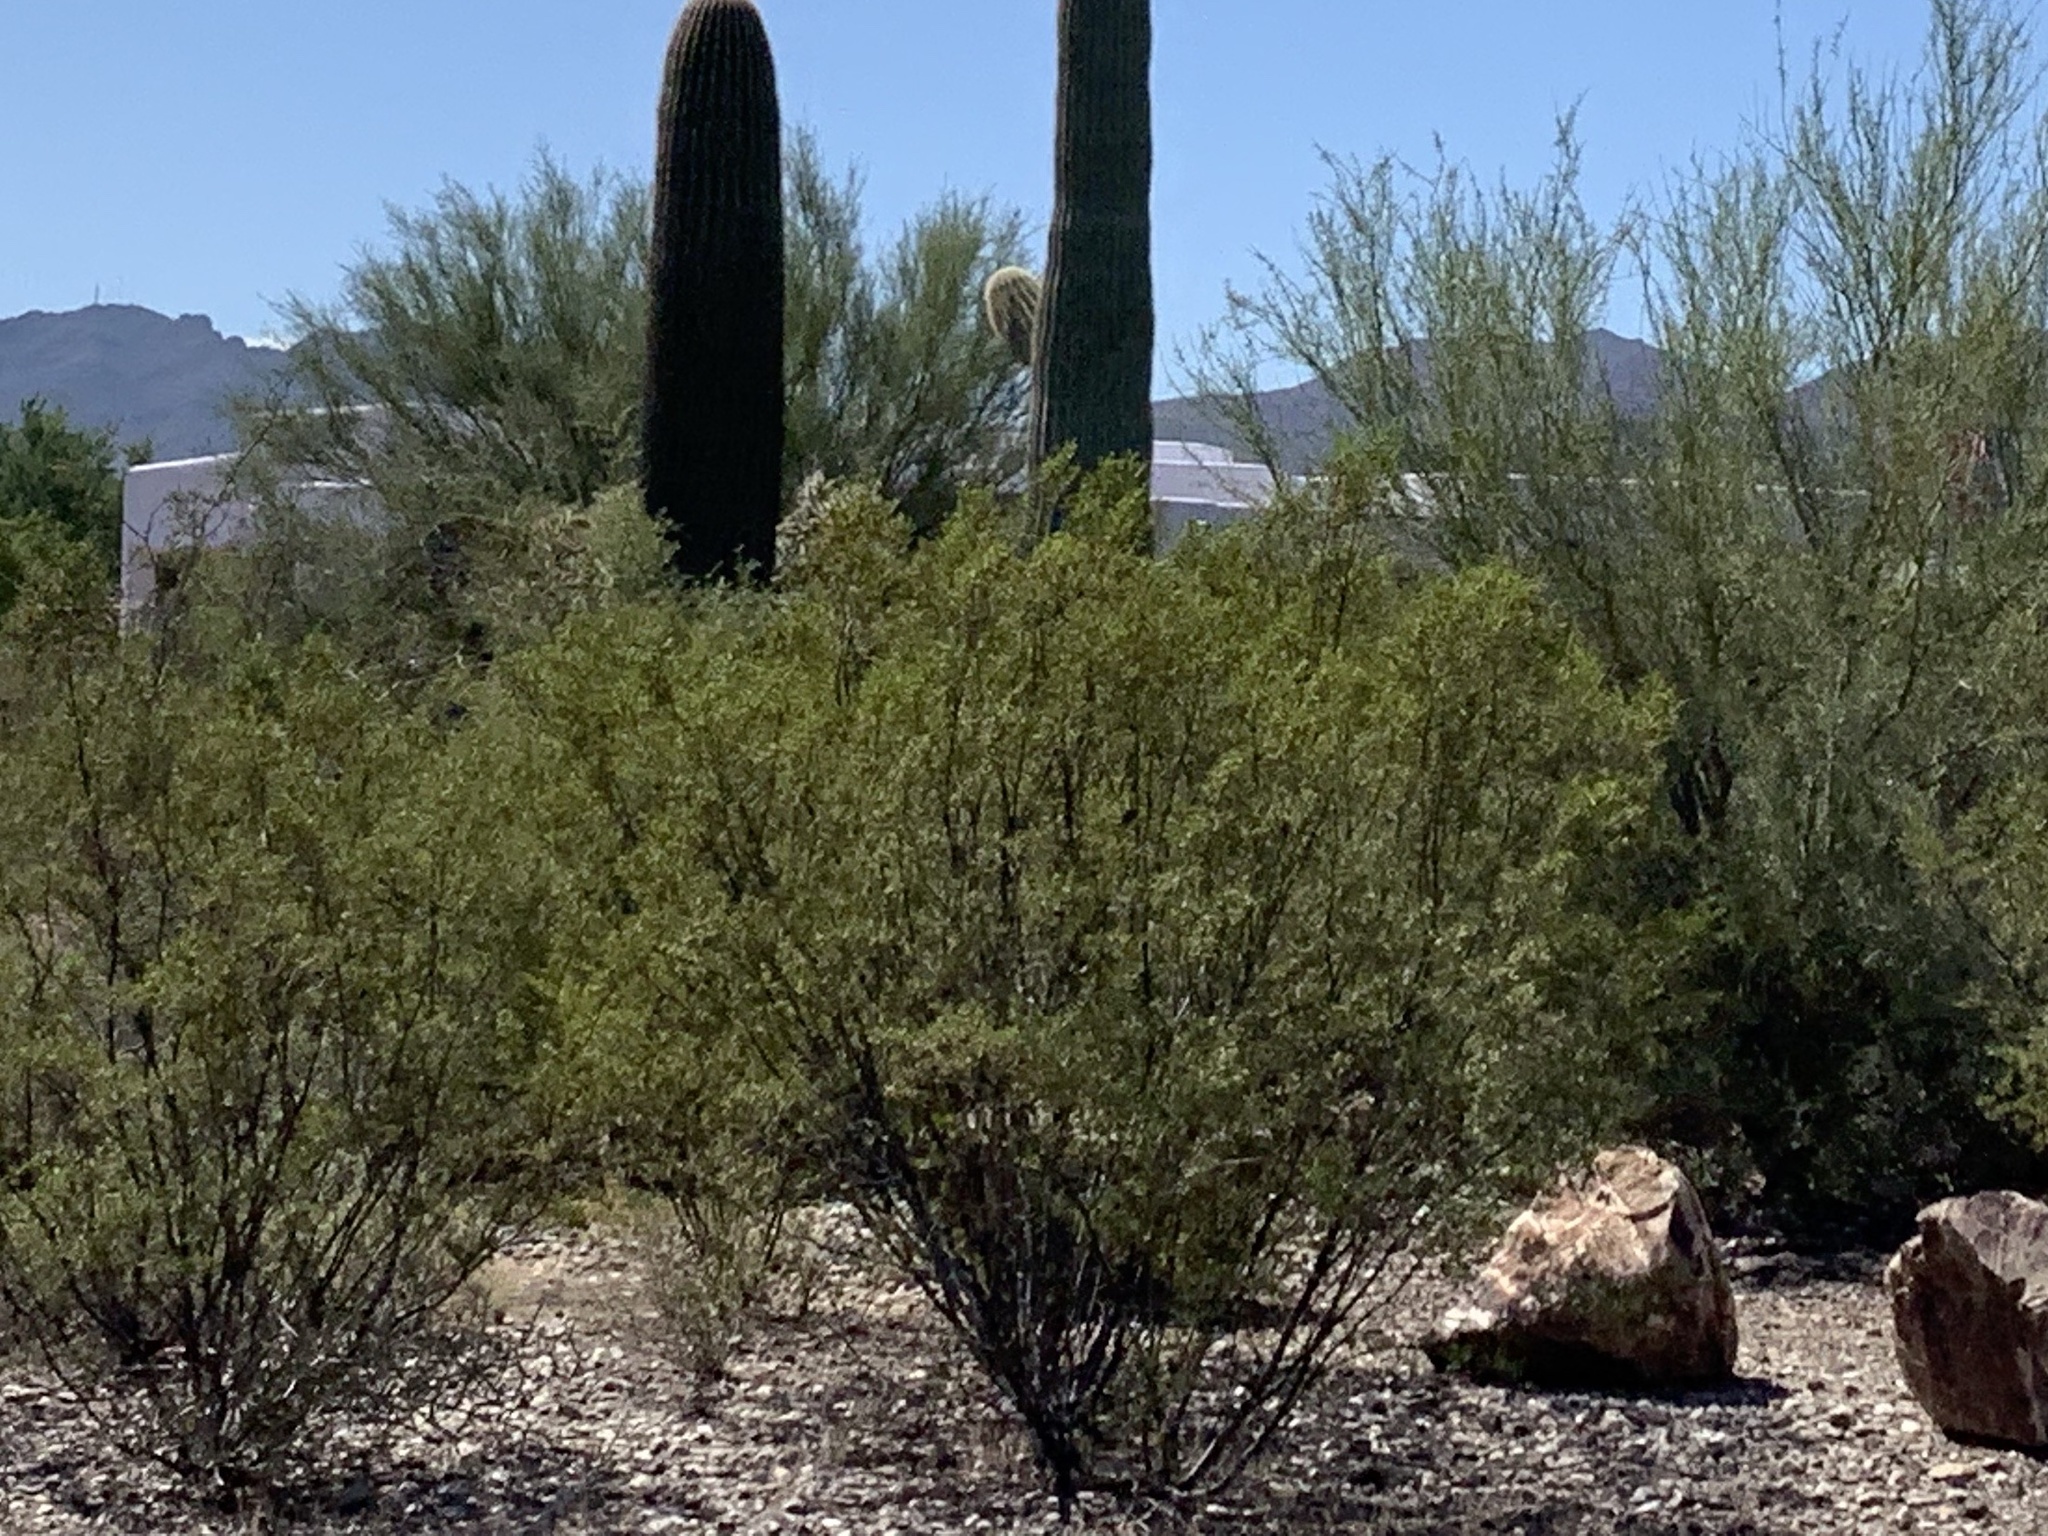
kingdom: Plantae
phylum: Tracheophyta
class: Magnoliopsida
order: Zygophyllales
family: Zygophyllaceae
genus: Larrea
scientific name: Larrea tridentata
